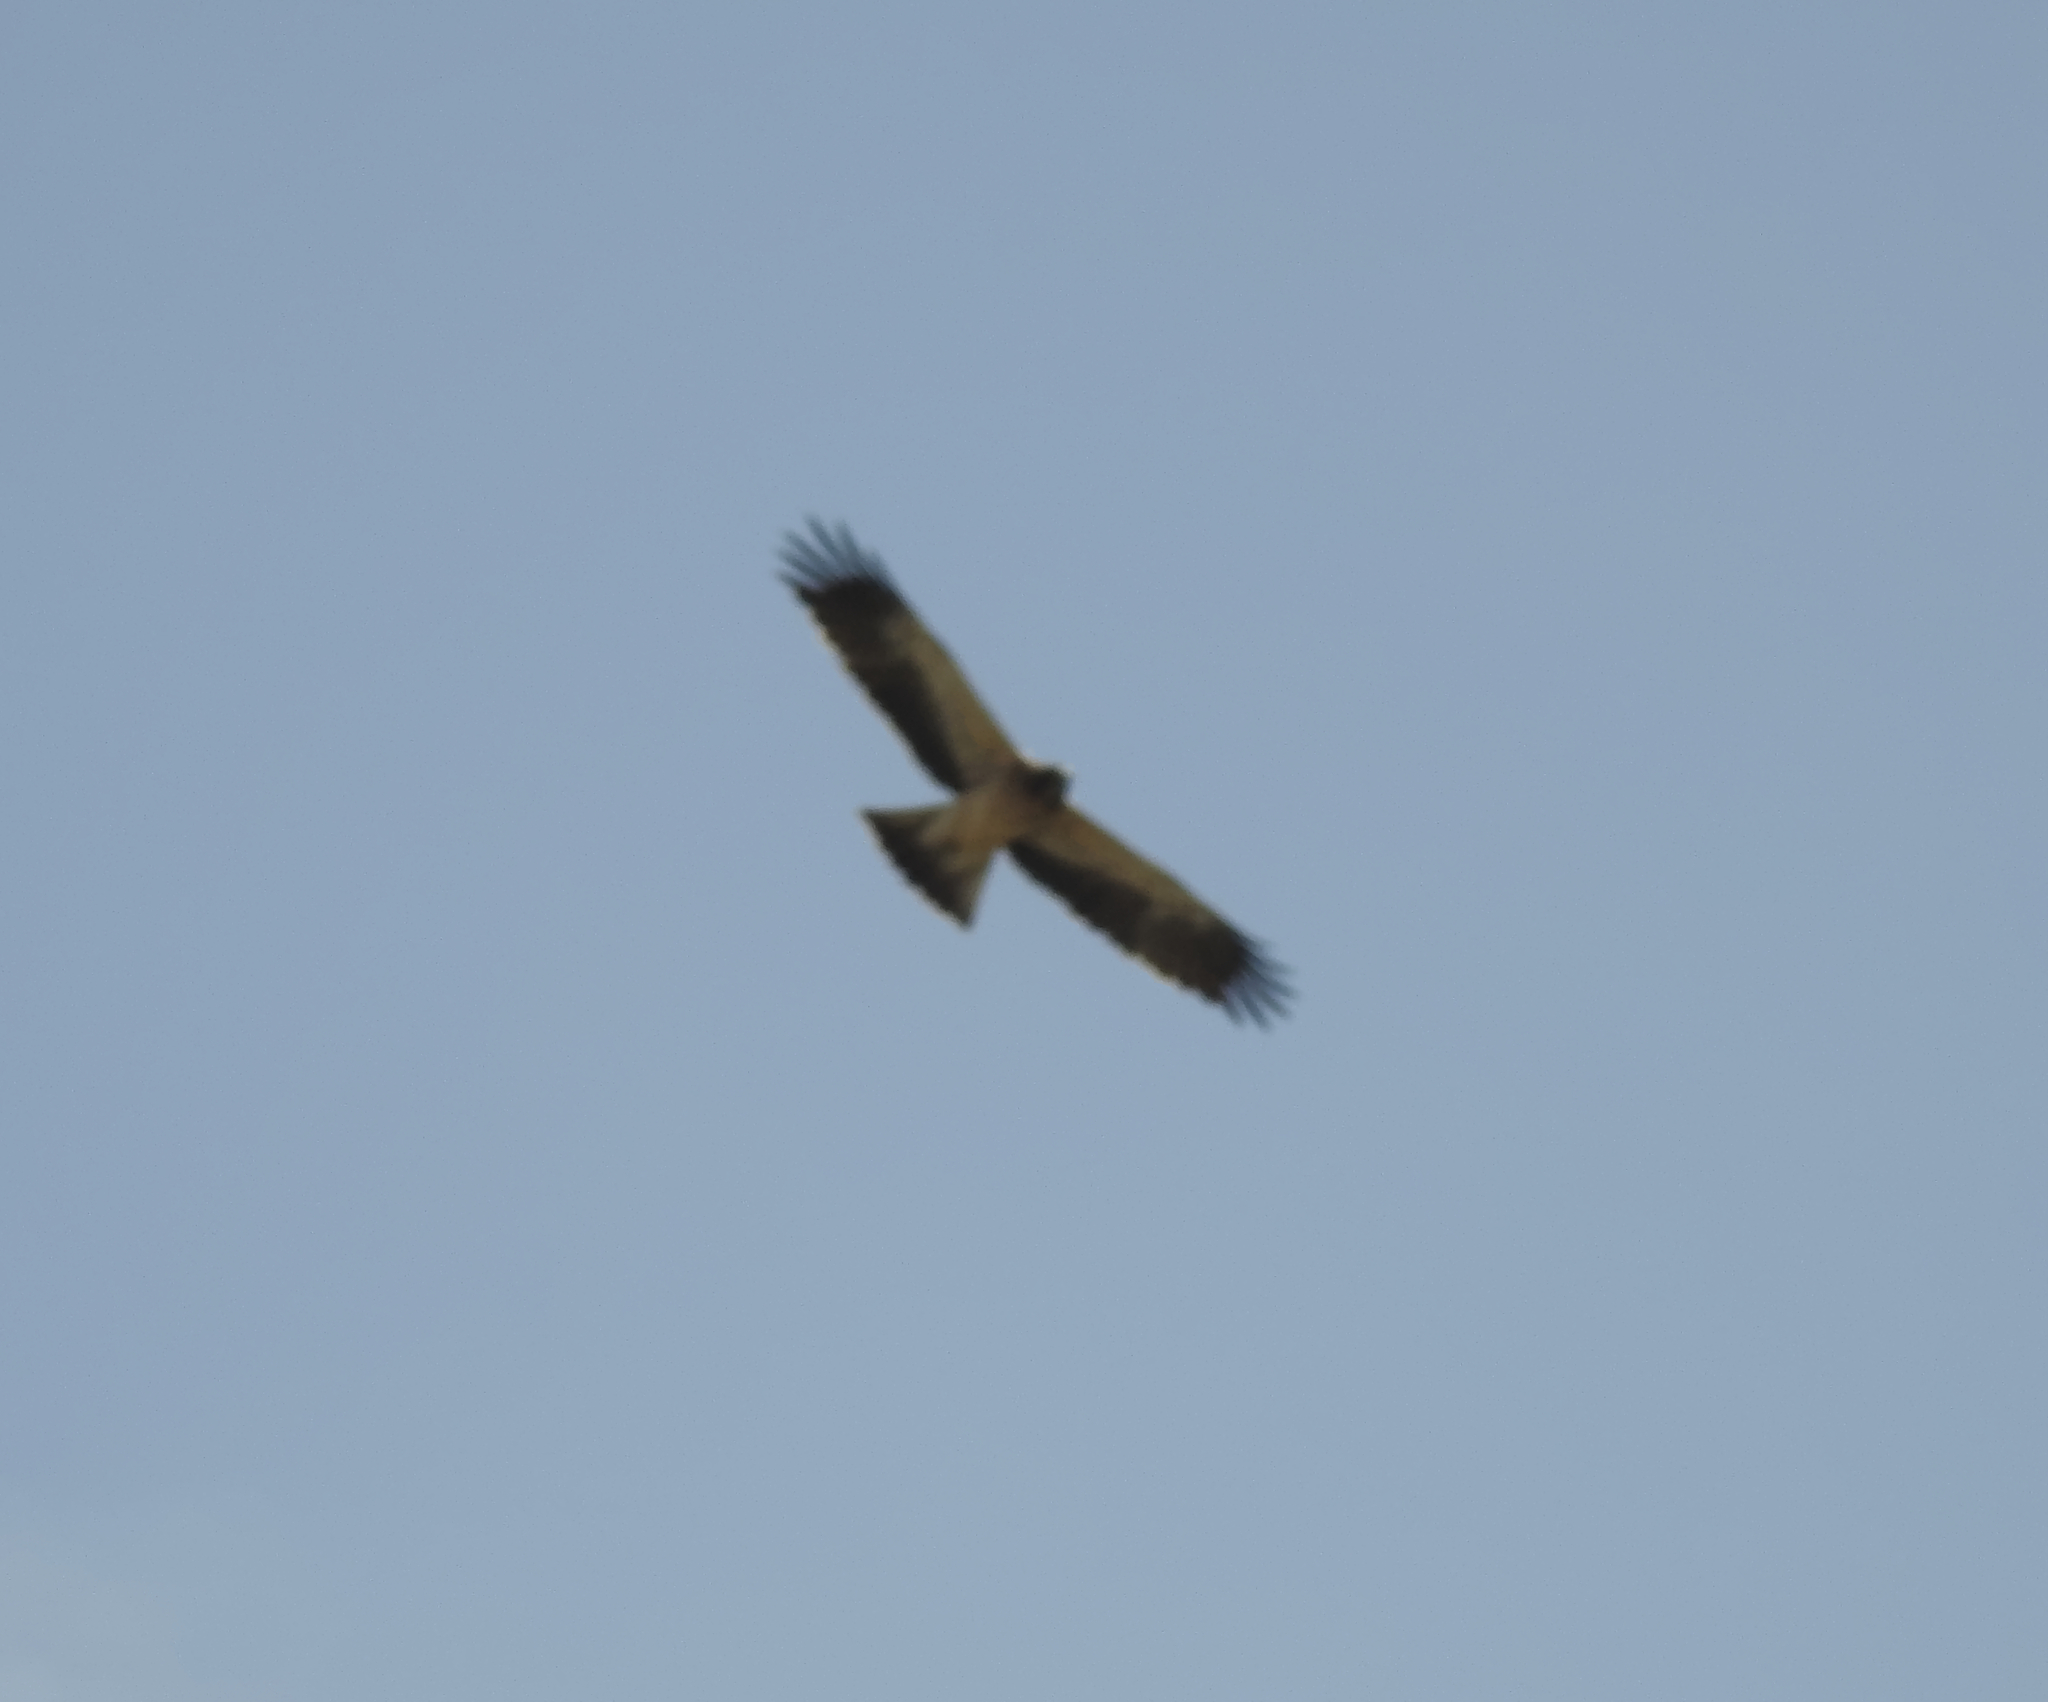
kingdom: Animalia
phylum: Chordata
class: Aves
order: Accipitriformes
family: Accipitridae
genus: Hieraaetus
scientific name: Hieraaetus pennatus
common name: Booted eagle
